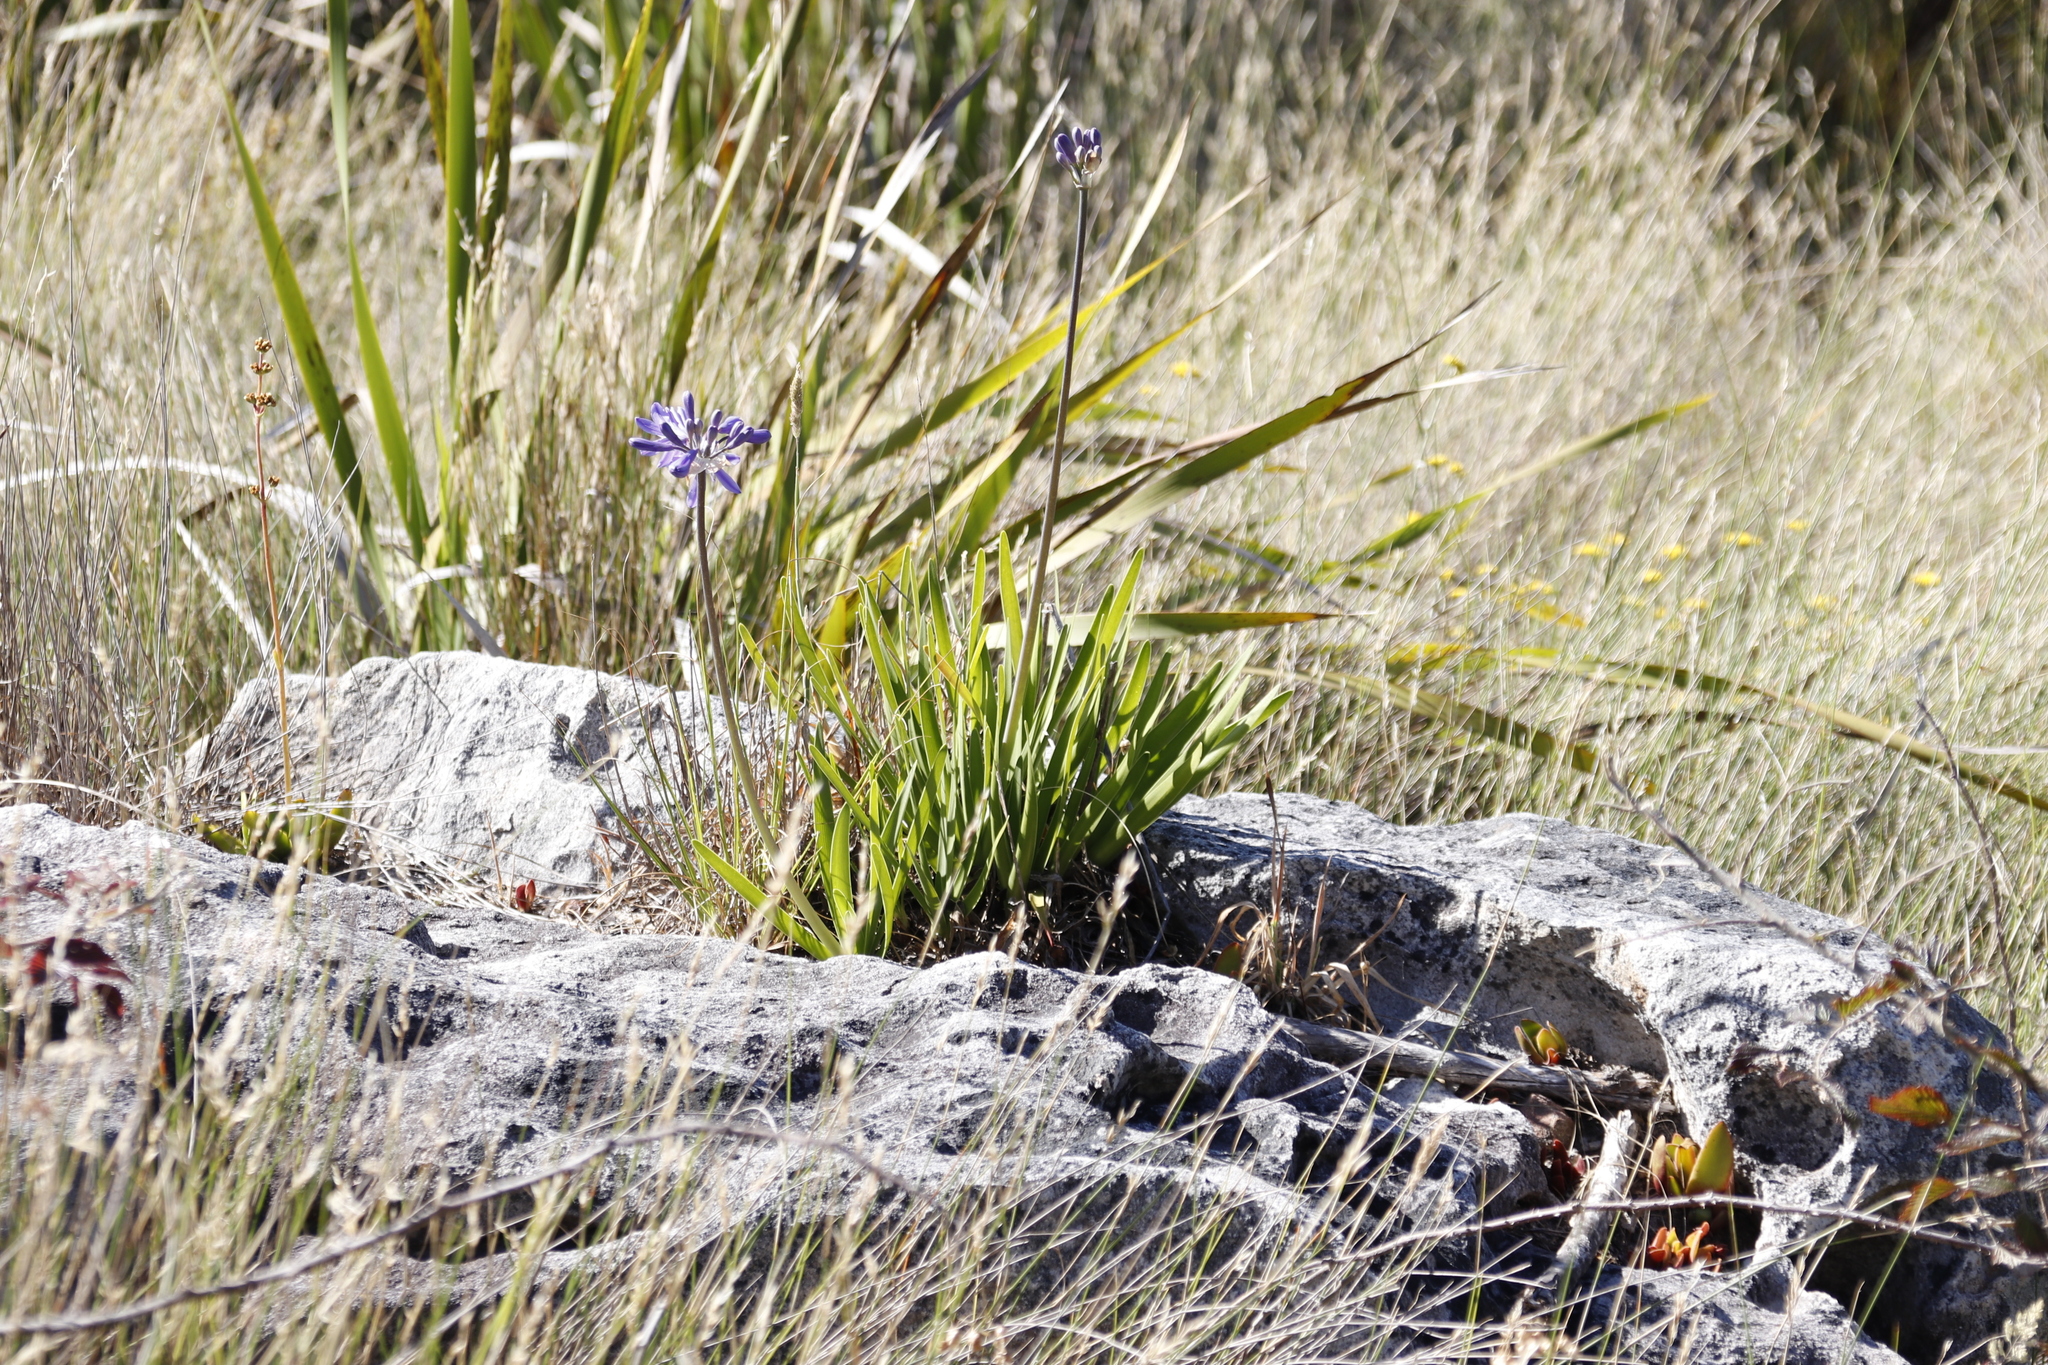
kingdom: Plantae
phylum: Tracheophyta
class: Liliopsida
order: Asparagales
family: Amaryllidaceae
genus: Agapanthus
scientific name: Agapanthus africanus
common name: Lily-of-the-nile
